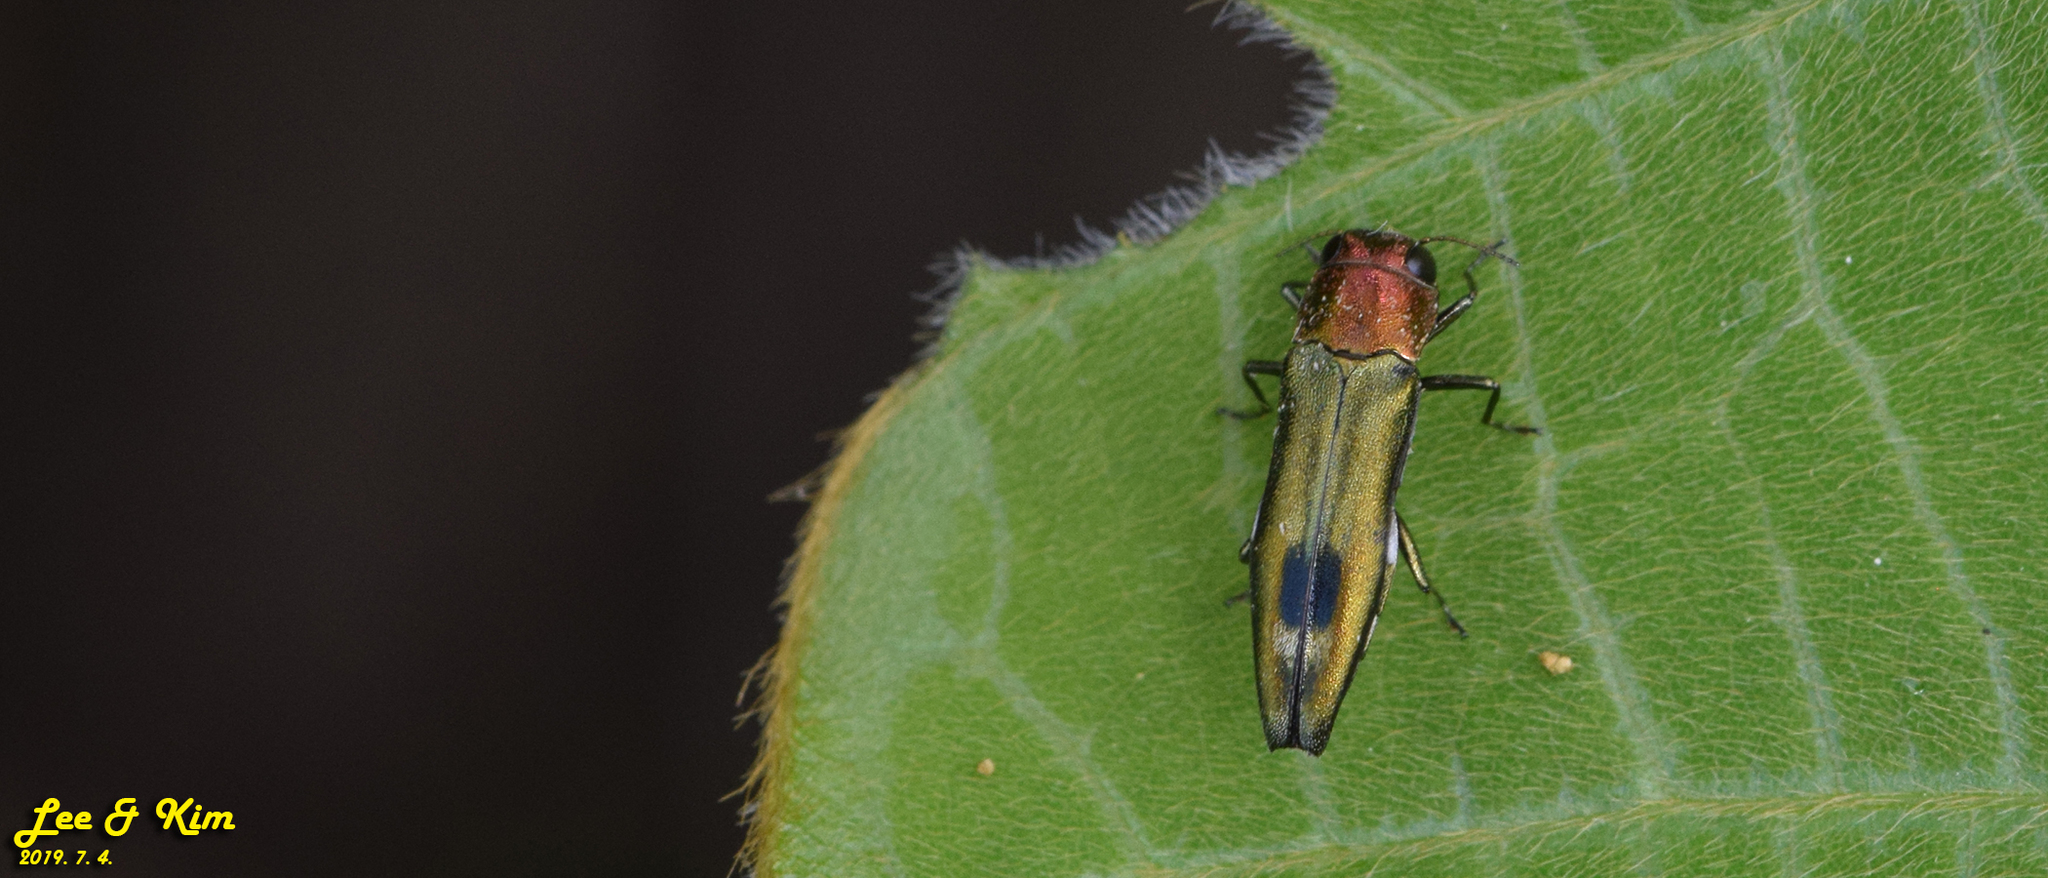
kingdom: Animalia
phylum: Arthropoda
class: Insecta
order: Coleoptera
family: Buprestidae
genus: Agrilus
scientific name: Agrilus chujoi
